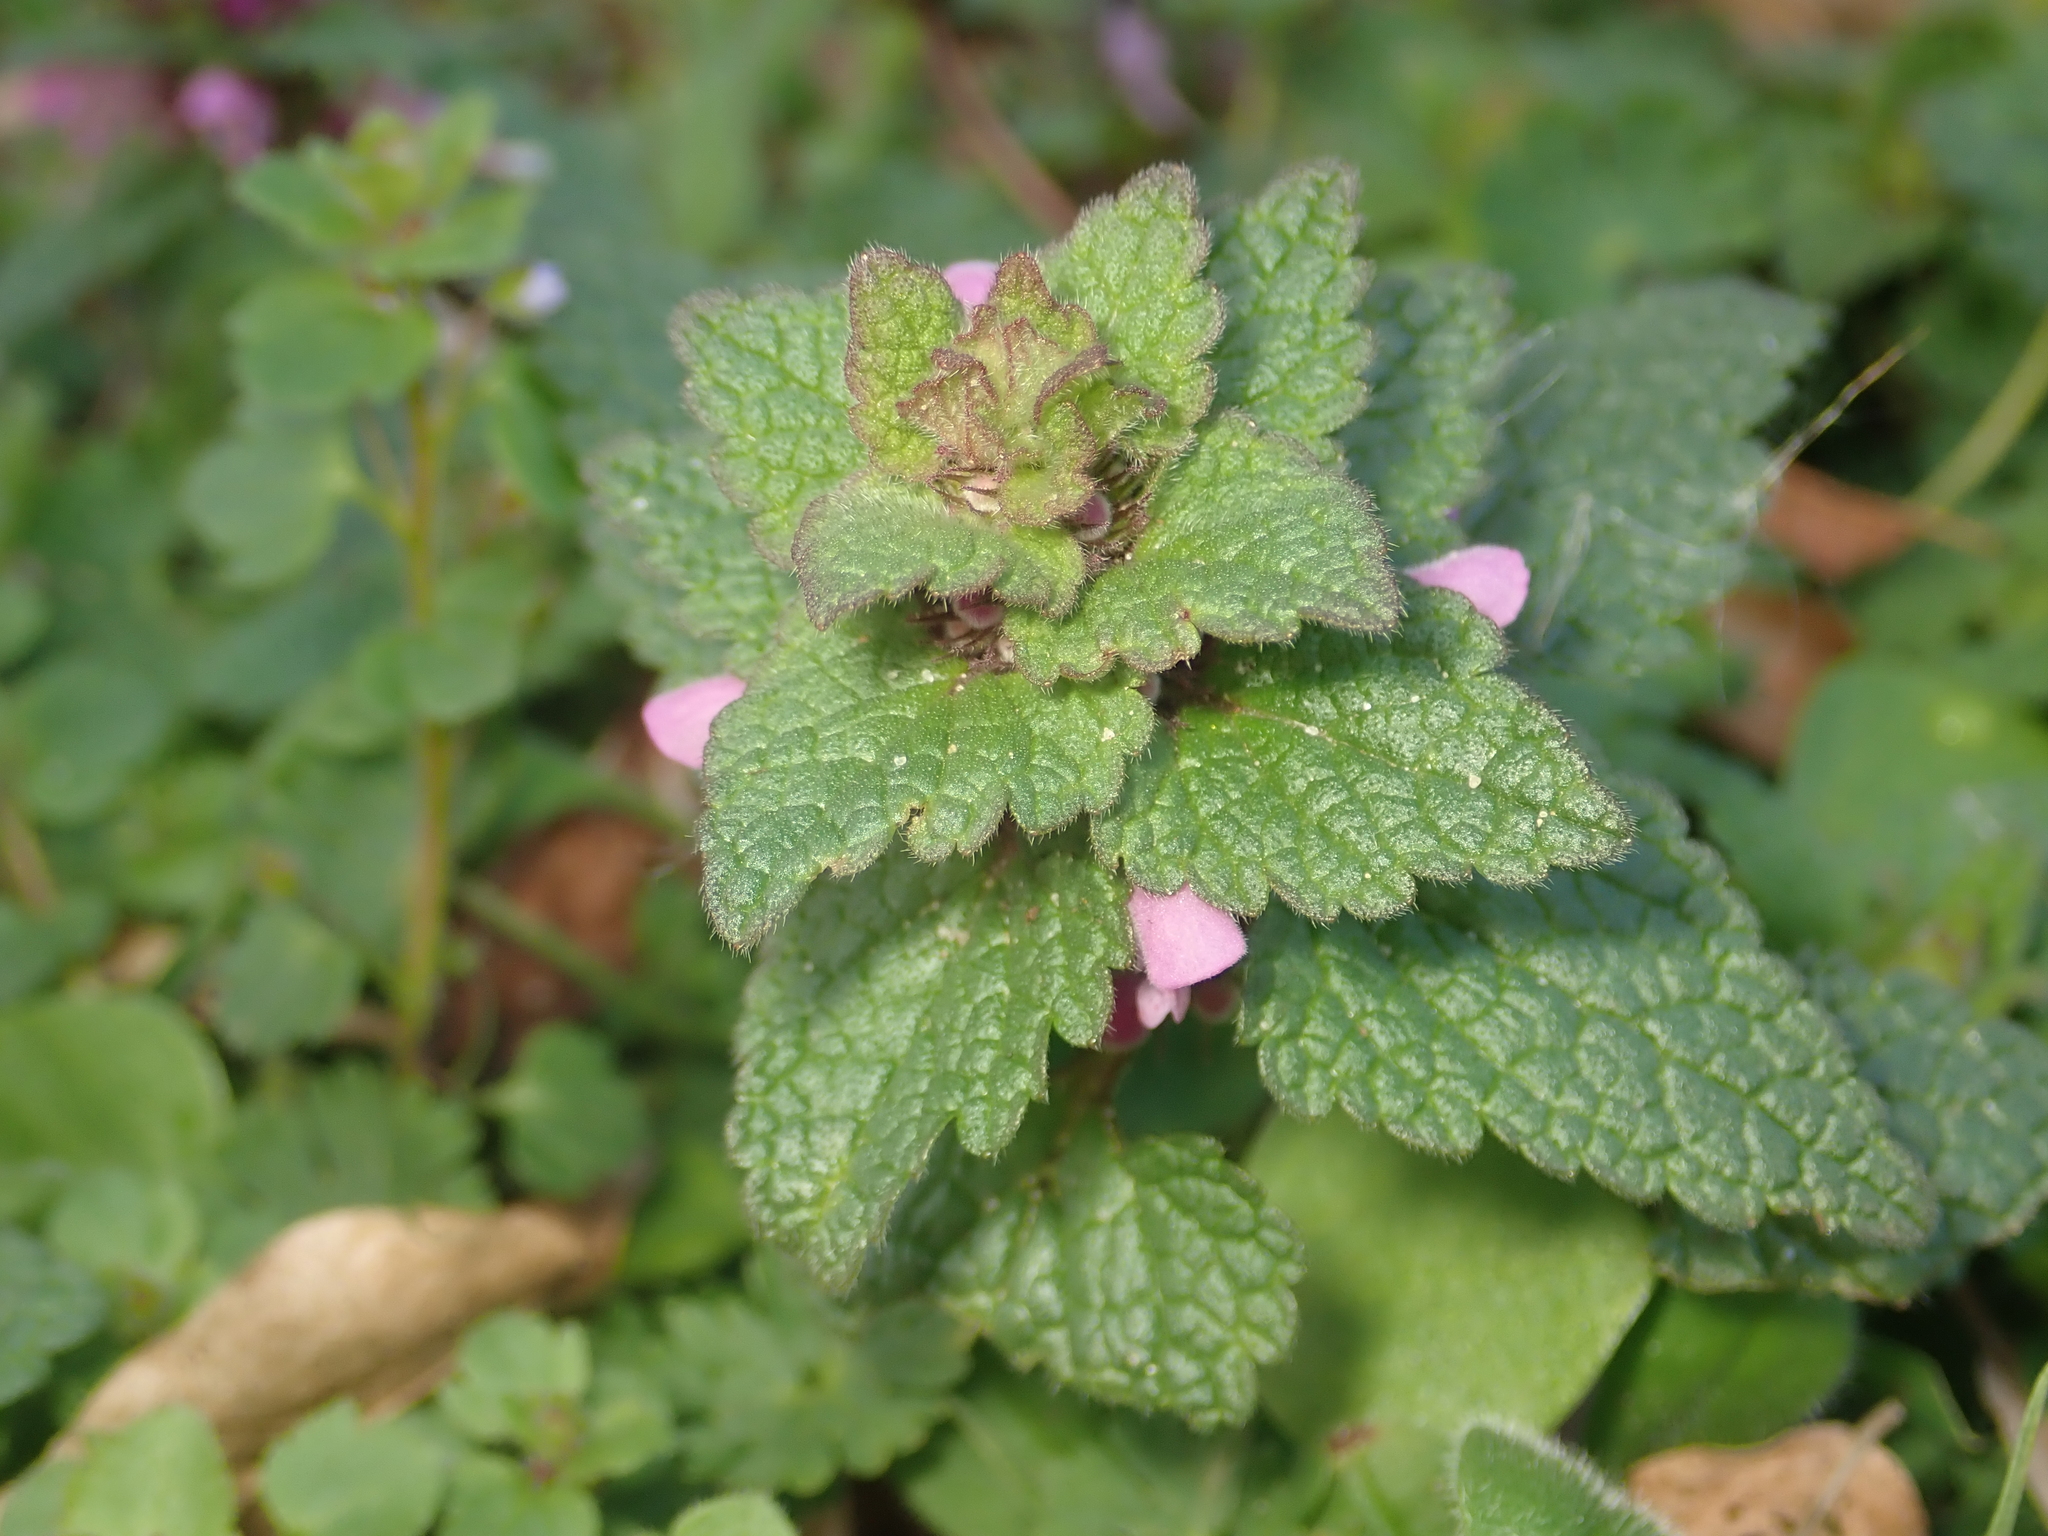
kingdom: Plantae
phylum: Tracheophyta
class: Magnoliopsida
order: Lamiales
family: Lamiaceae
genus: Lamium
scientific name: Lamium purpureum
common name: Red dead-nettle
